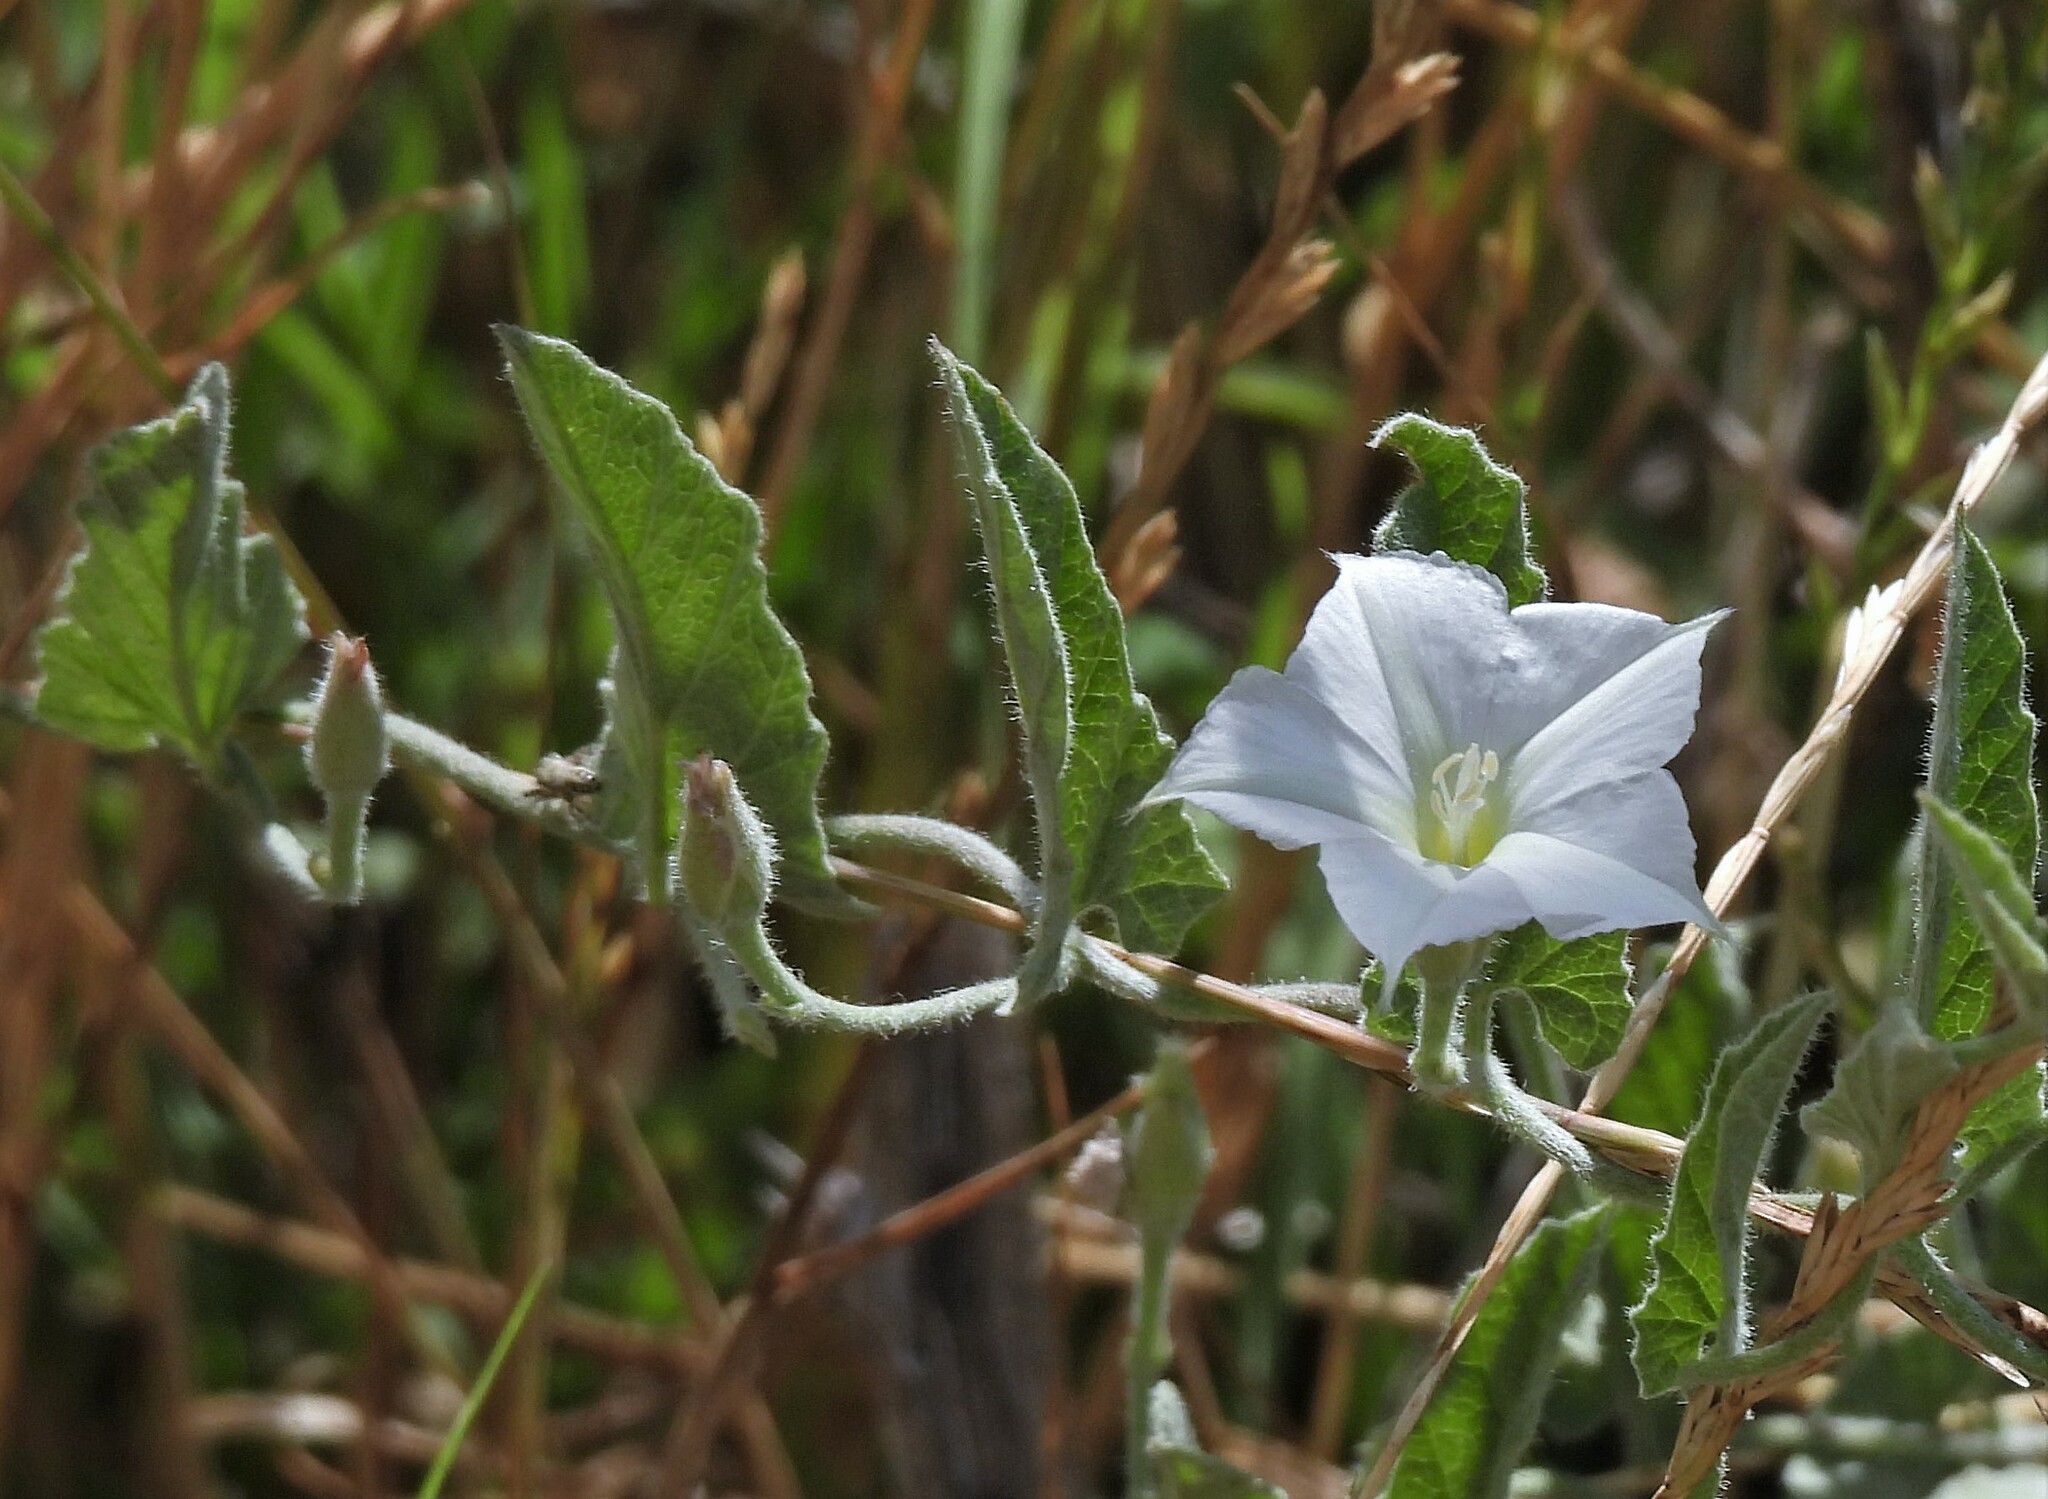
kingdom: Plantae
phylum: Tracheophyta
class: Magnoliopsida
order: Solanales
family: Convolvulaceae
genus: Convolvulus
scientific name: Convolvulus hermanniae
